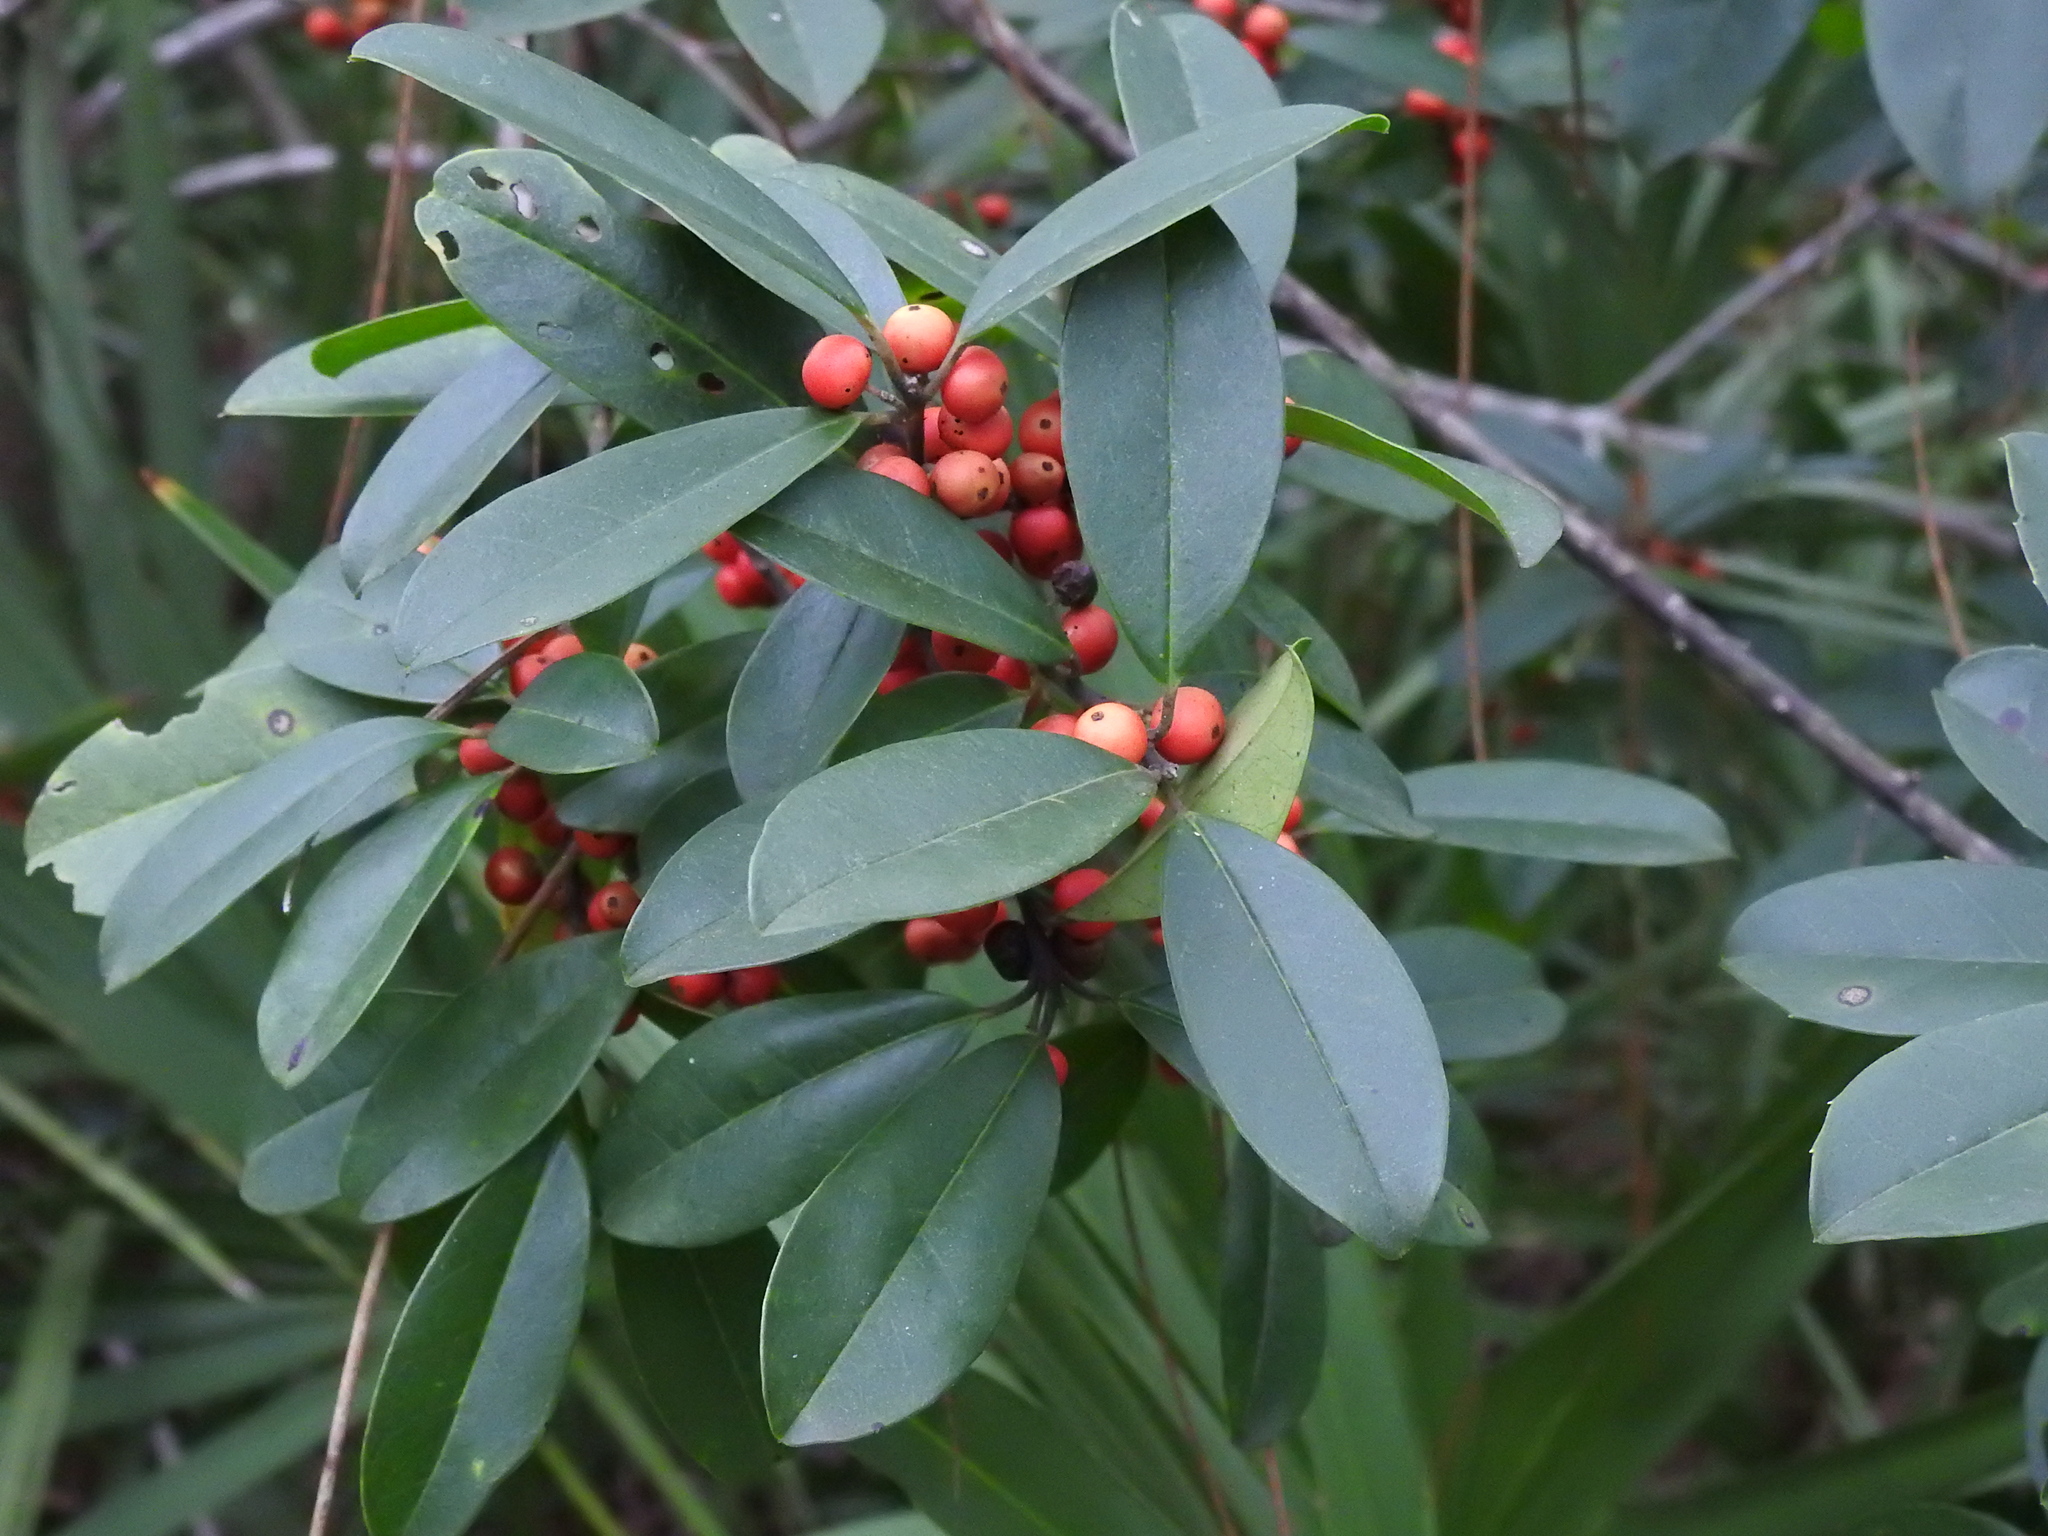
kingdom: Plantae
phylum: Tracheophyta
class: Magnoliopsida
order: Aquifoliales
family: Aquifoliaceae
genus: Ilex
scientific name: Ilex cassine
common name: Dahoon
